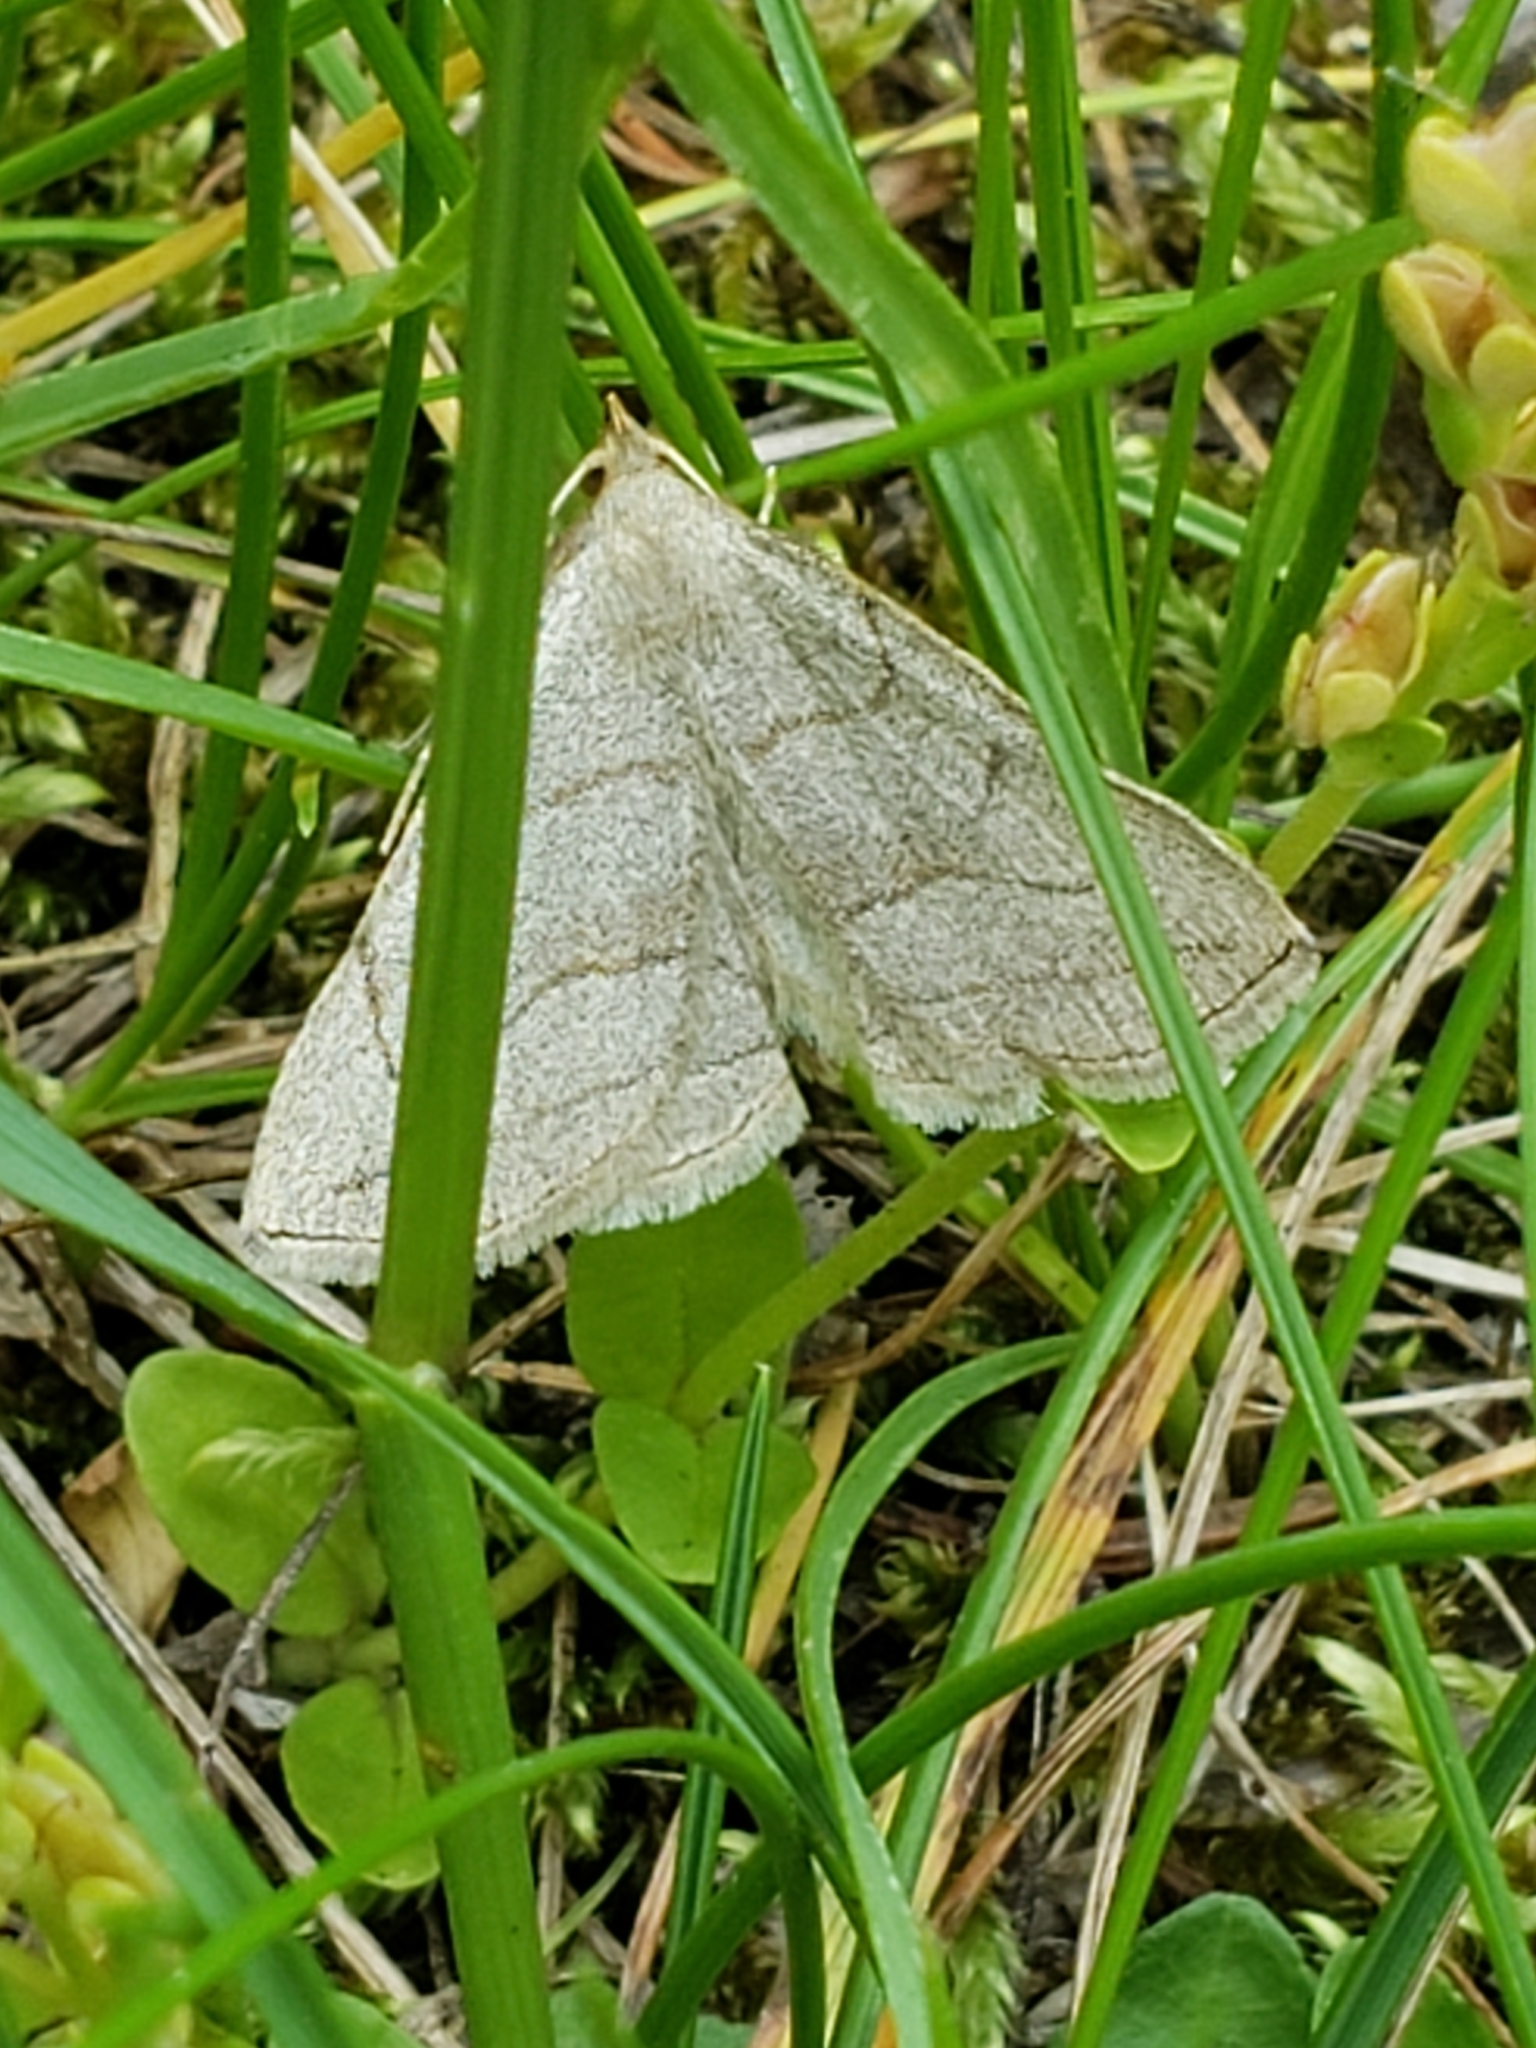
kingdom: Animalia
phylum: Arthropoda
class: Insecta
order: Lepidoptera
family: Erebidae
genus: Zanclognatha
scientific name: Zanclognatha pedipilalis
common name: Grayish fan-foot
